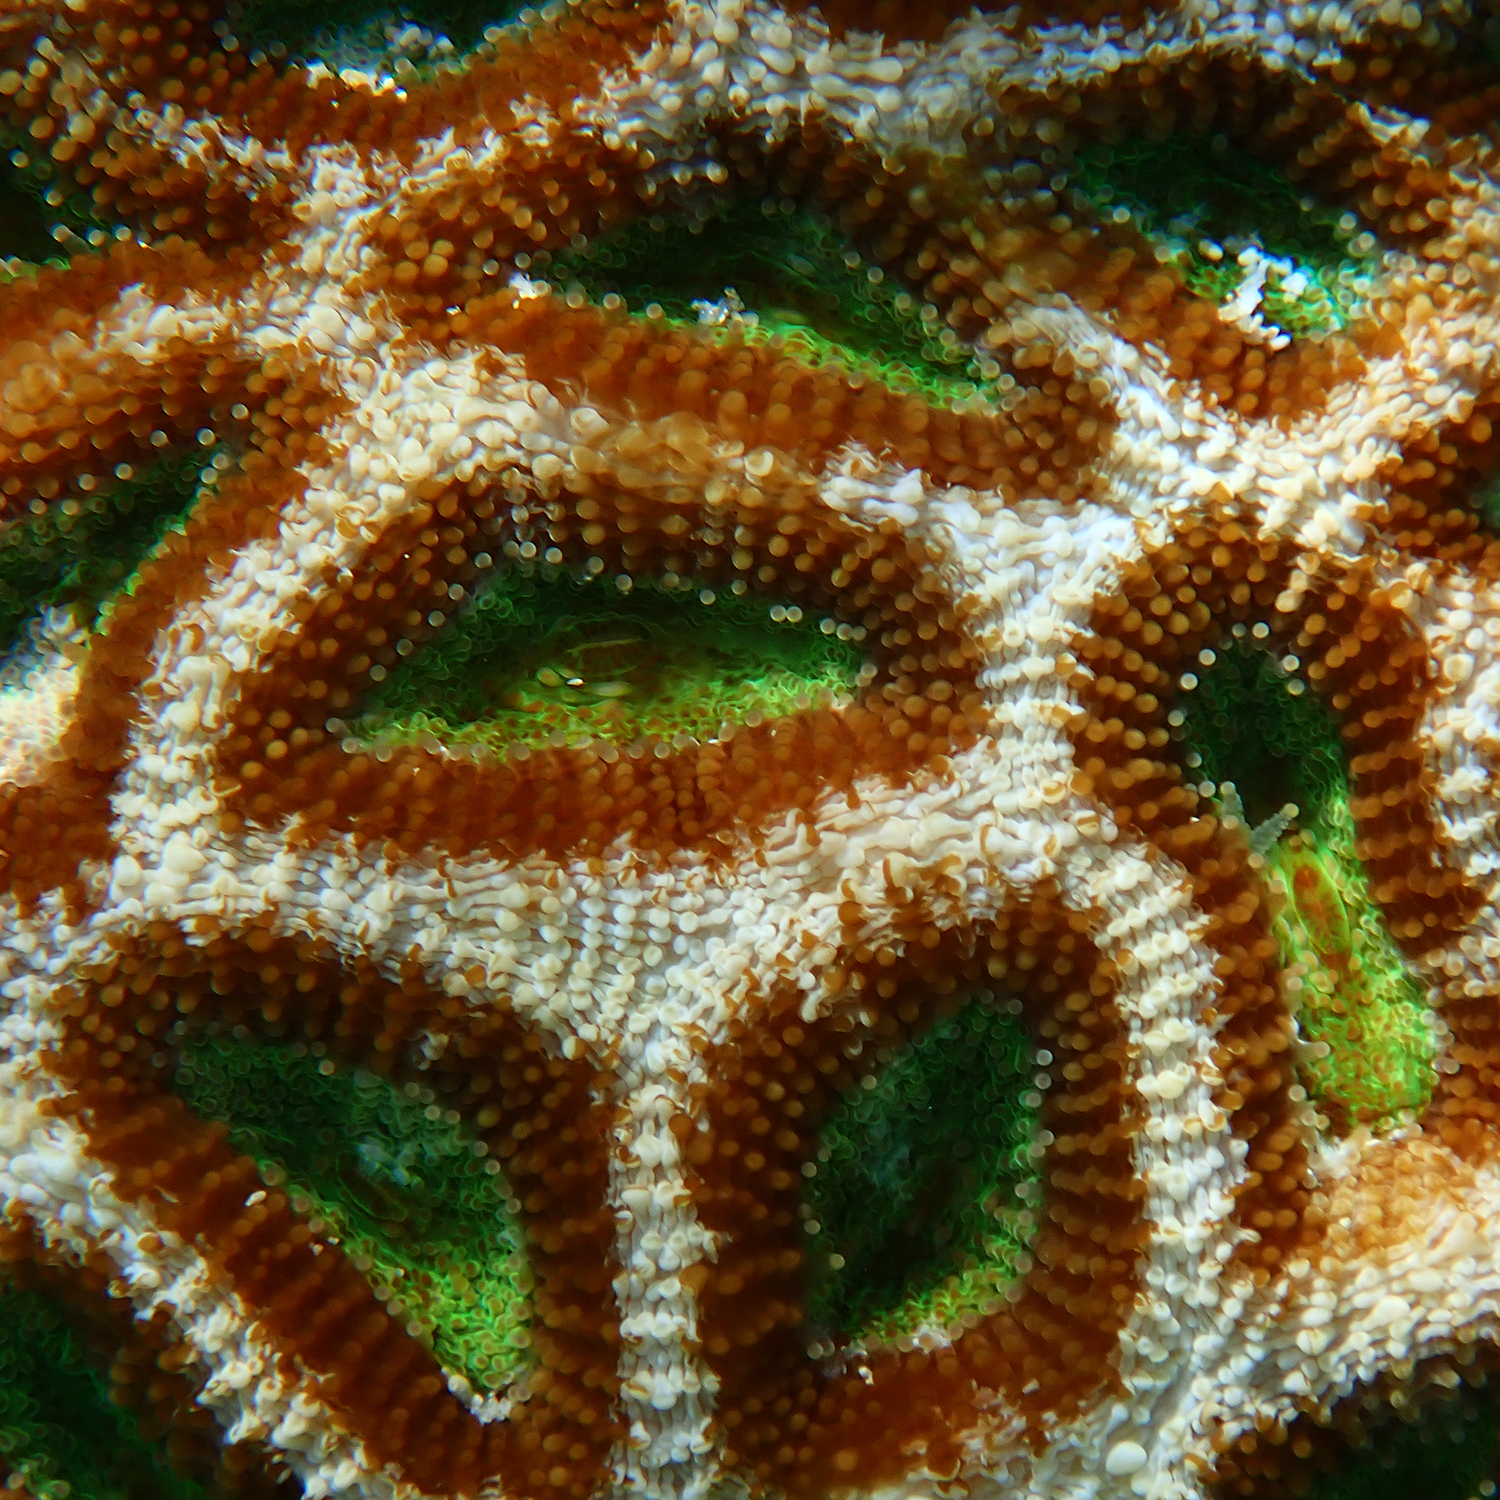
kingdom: Animalia
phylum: Cnidaria
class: Anthozoa
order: Scleractinia
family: Lobophylliidae
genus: Homophyllia
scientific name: Homophyllia bowerbanki
